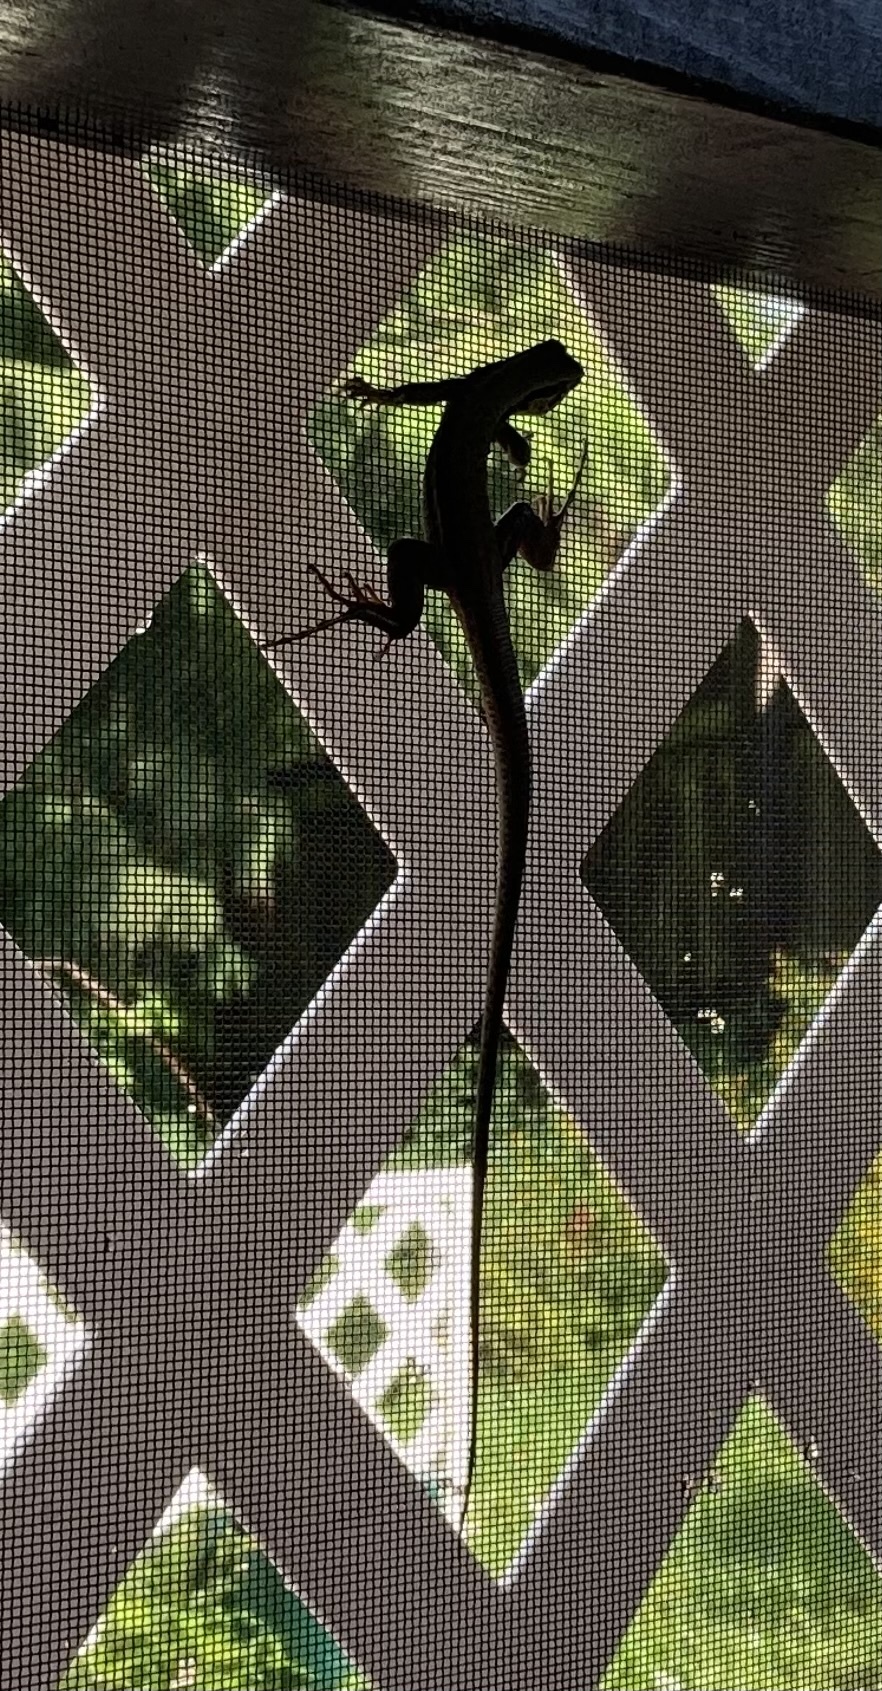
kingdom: Animalia
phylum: Chordata
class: Squamata
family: Teiidae
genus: Ameiva
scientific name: Ameiva ameiva
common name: Giant ameiva
